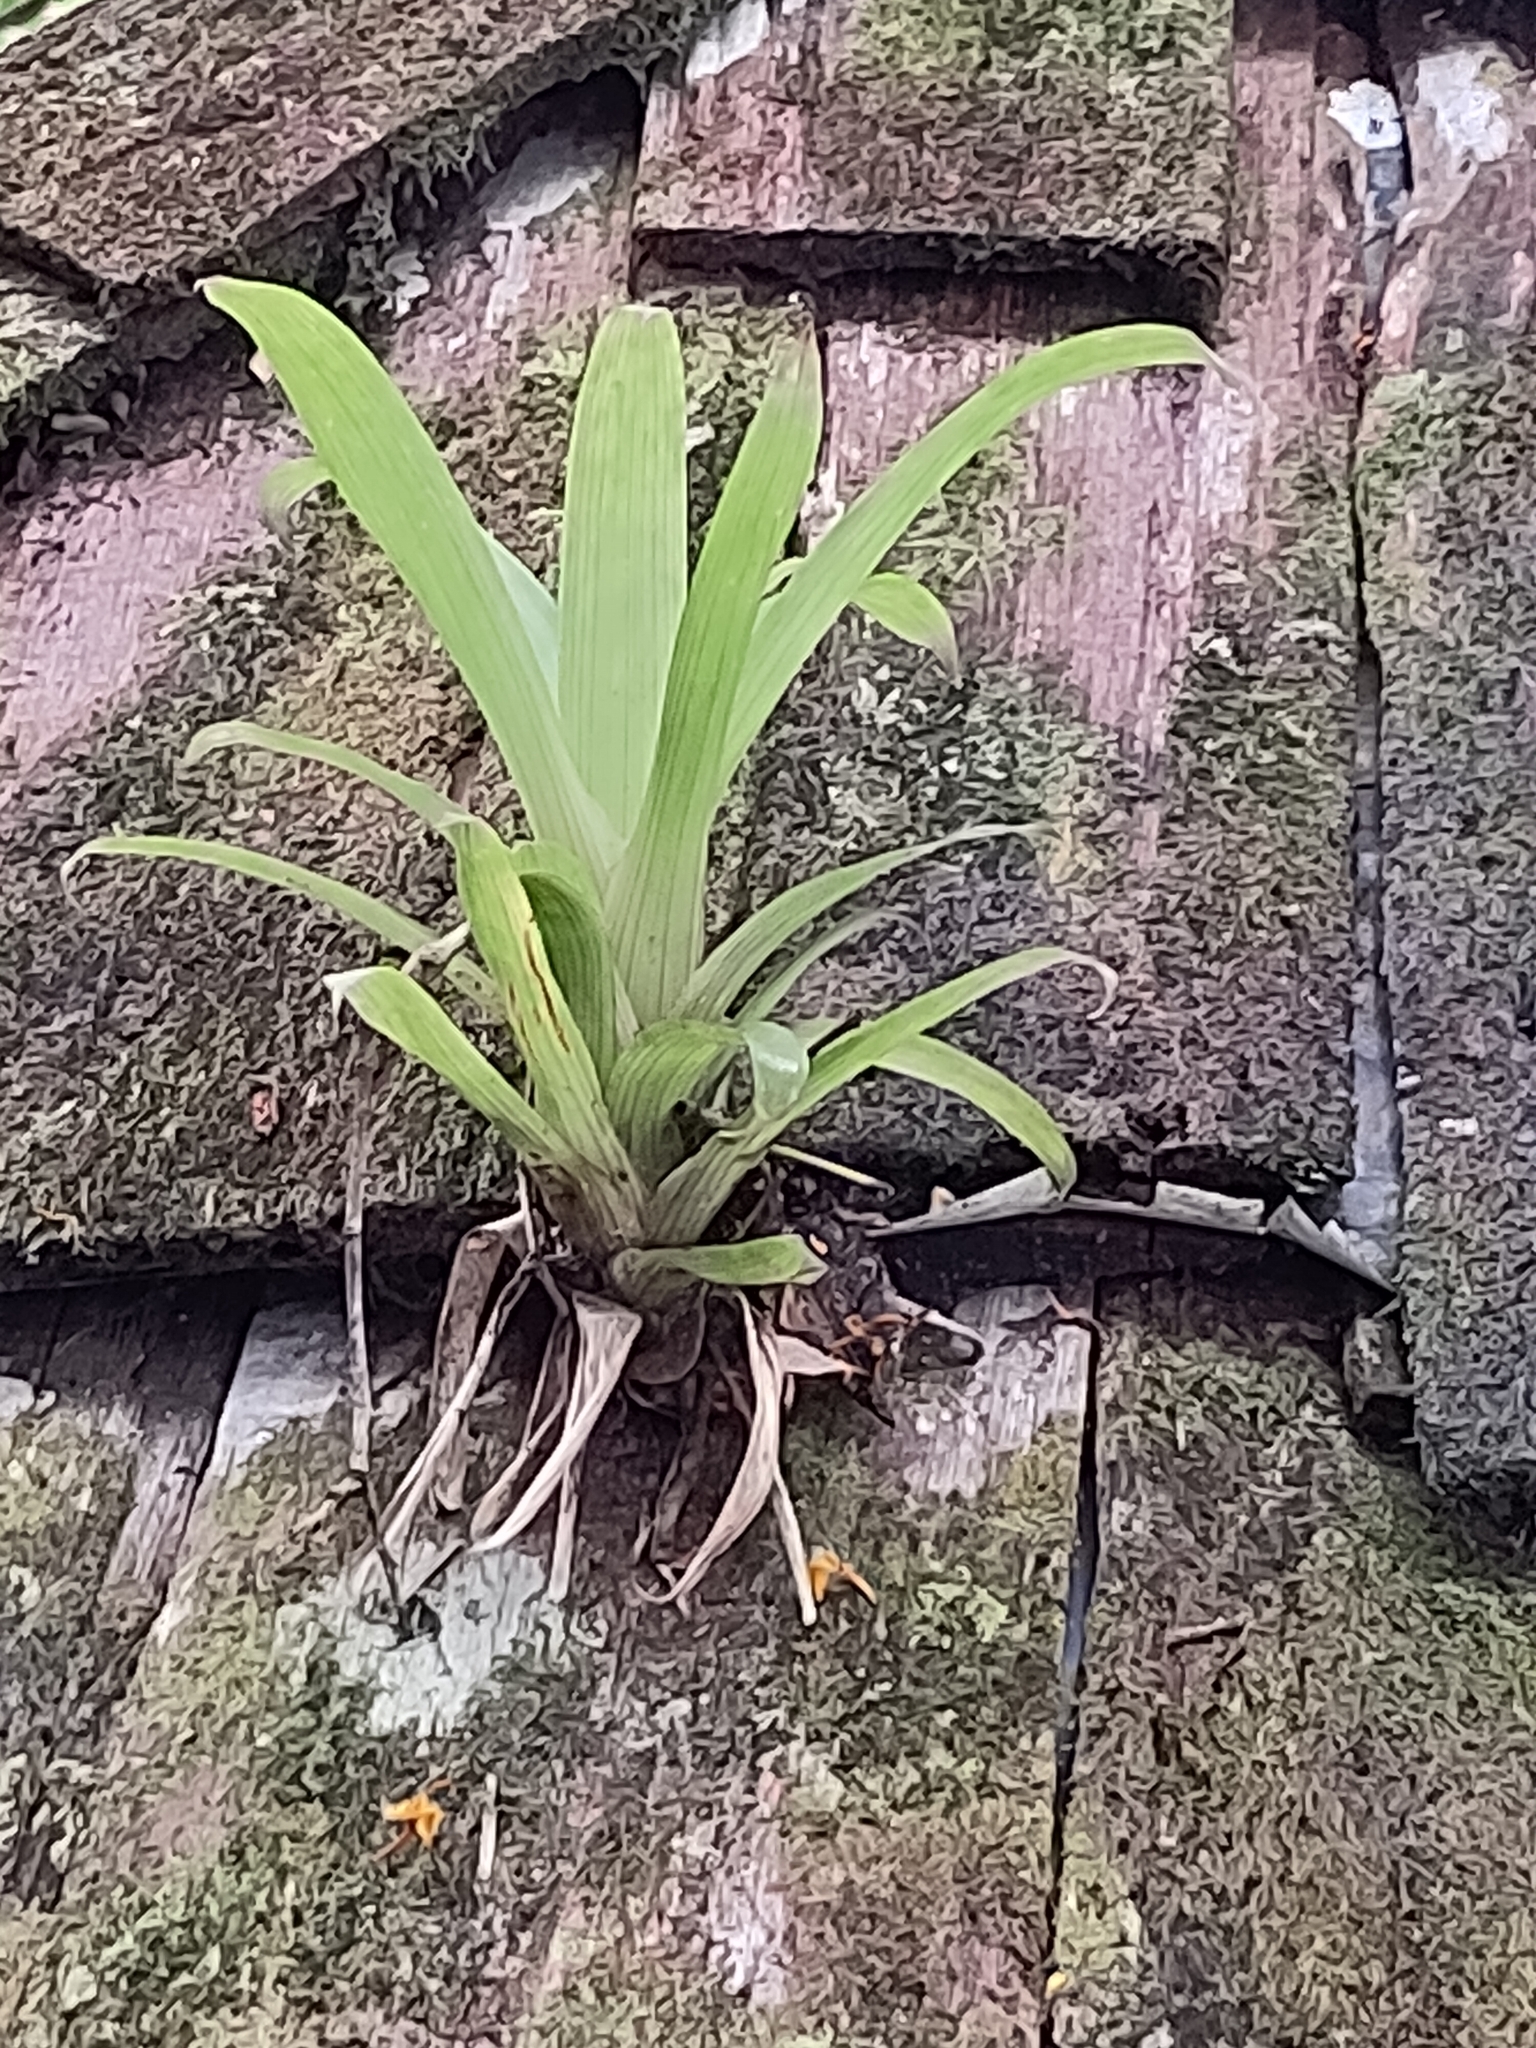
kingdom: Plantae
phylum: Tracheophyta
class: Liliopsida
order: Poales
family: Bromeliaceae
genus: Guzmania
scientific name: Guzmania lingulata
